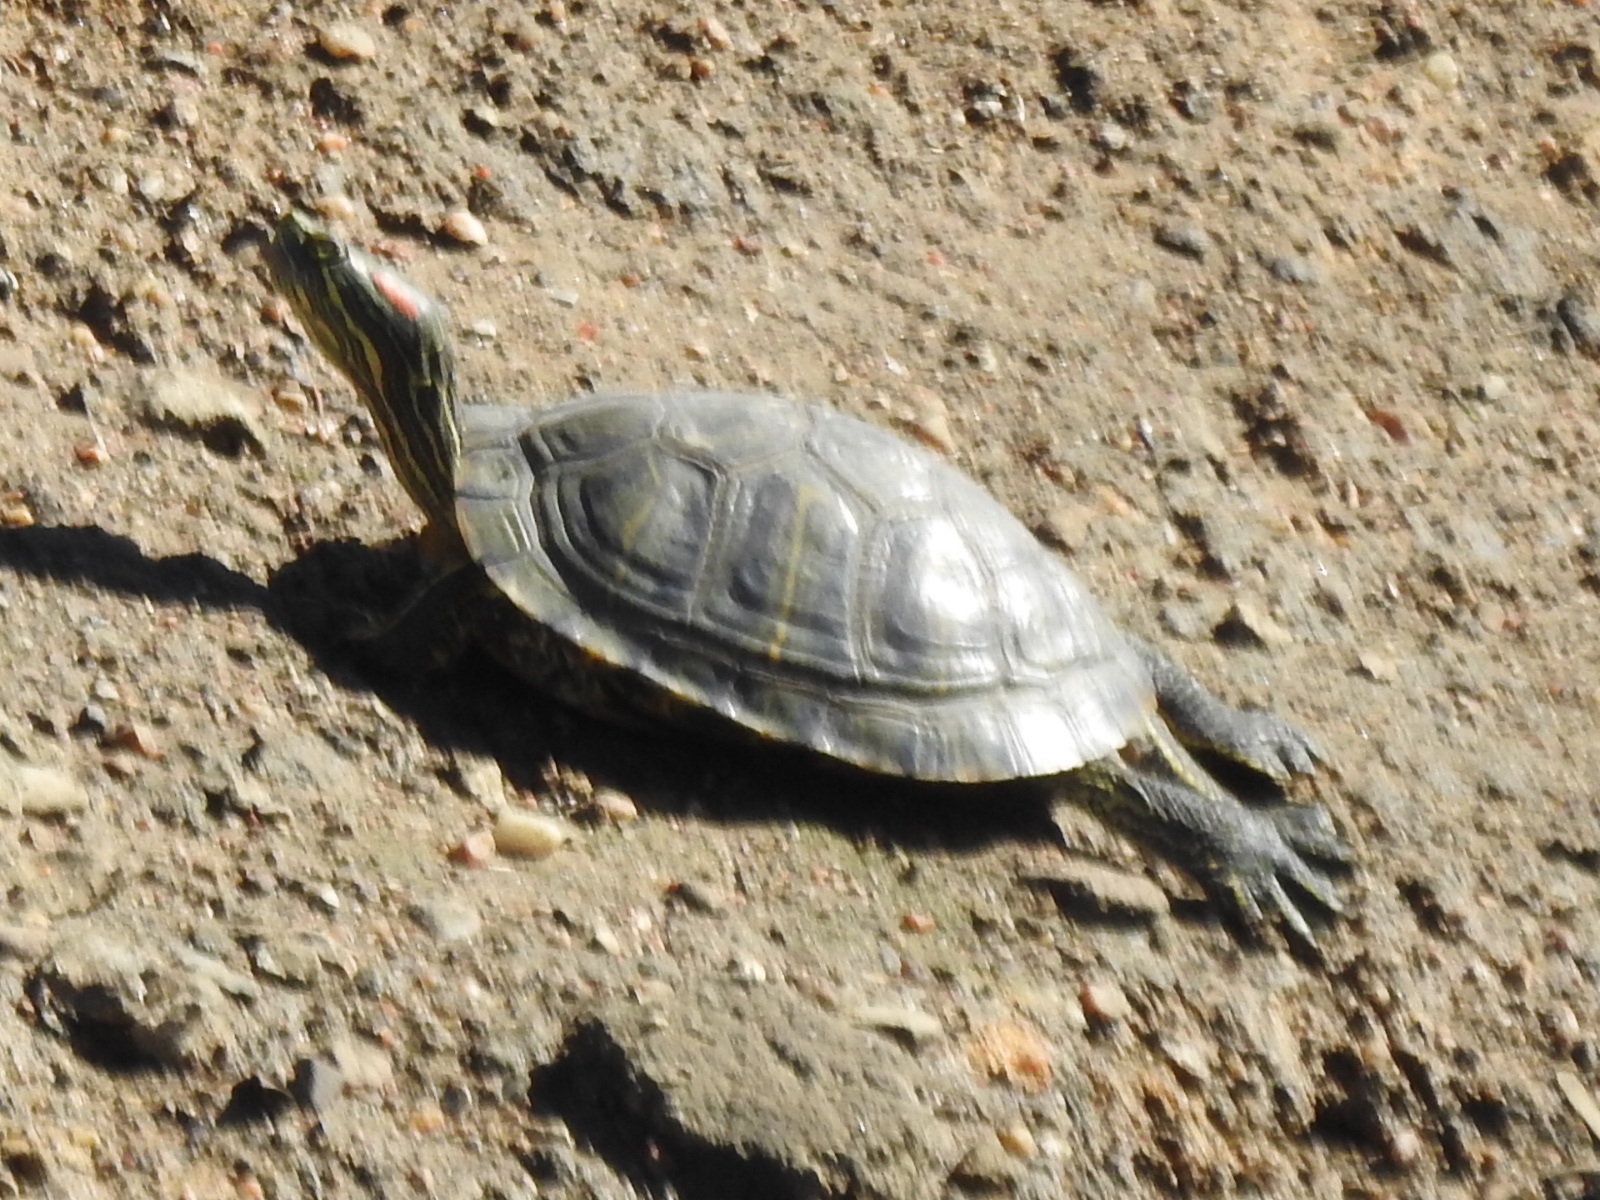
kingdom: Animalia
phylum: Chordata
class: Testudines
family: Emydidae
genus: Trachemys
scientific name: Trachemys scripta
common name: Slider
